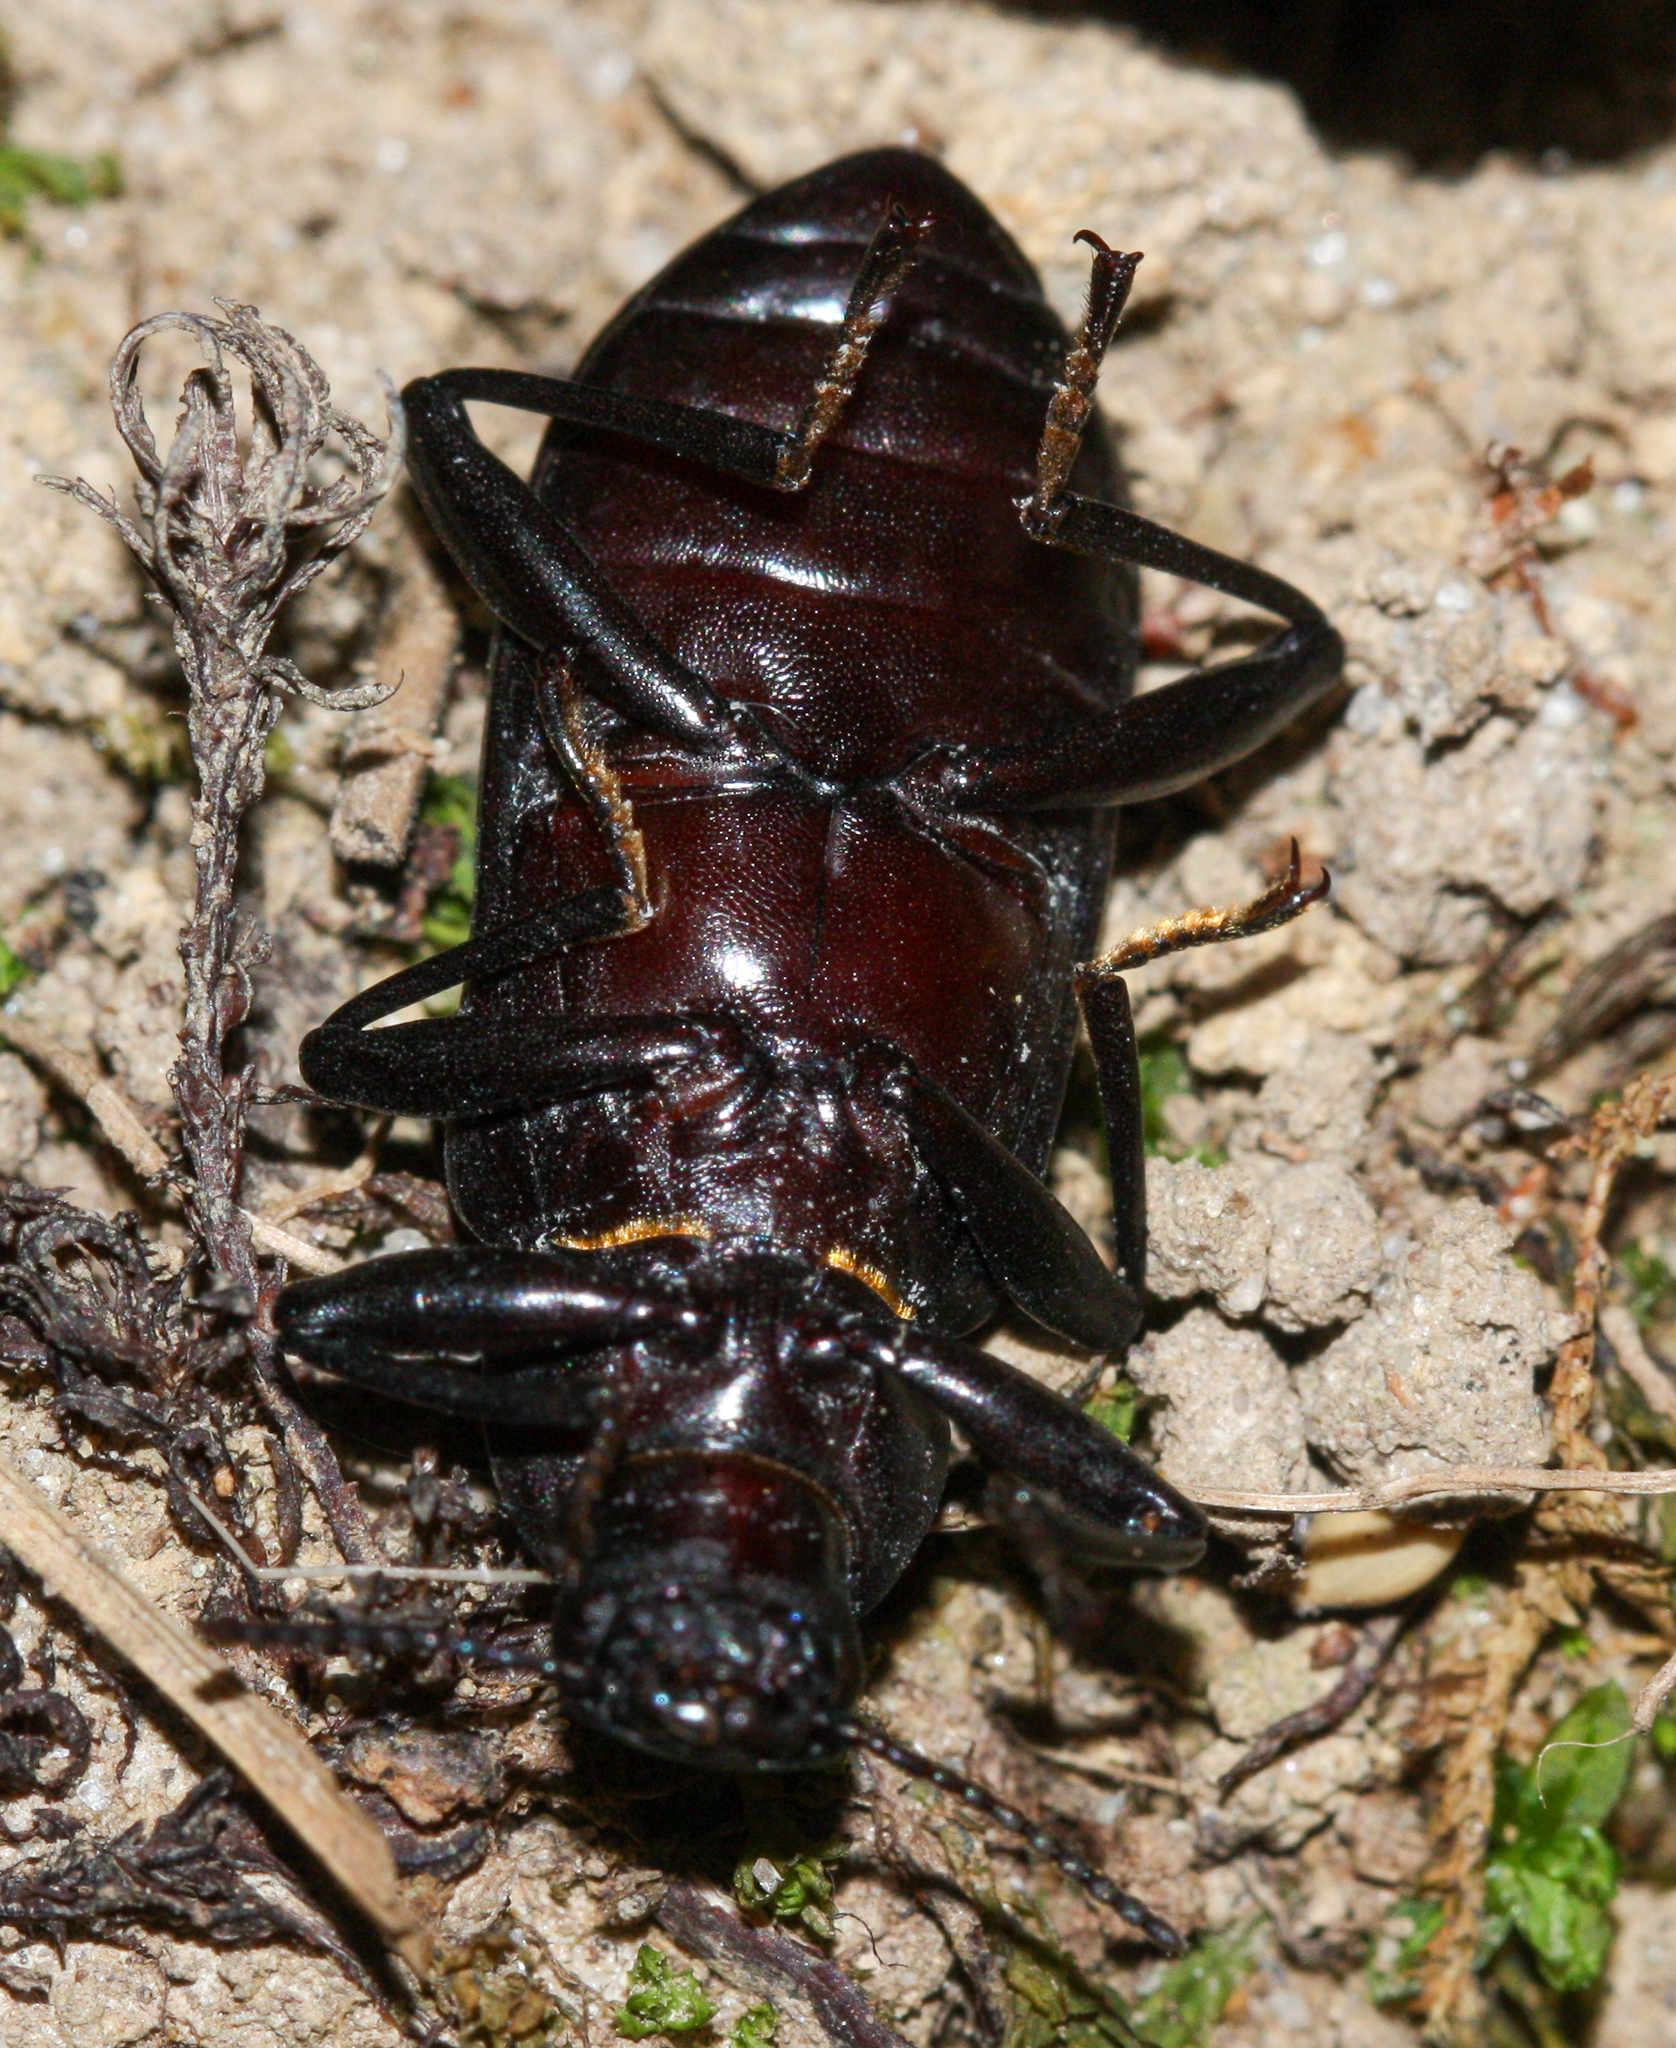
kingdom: Animalia
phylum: Arthropoda
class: Insecta
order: Coleoptera
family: Tenebrionidae
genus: Alobates
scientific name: Alobates pensylvanicus
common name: False mealworm beetle
